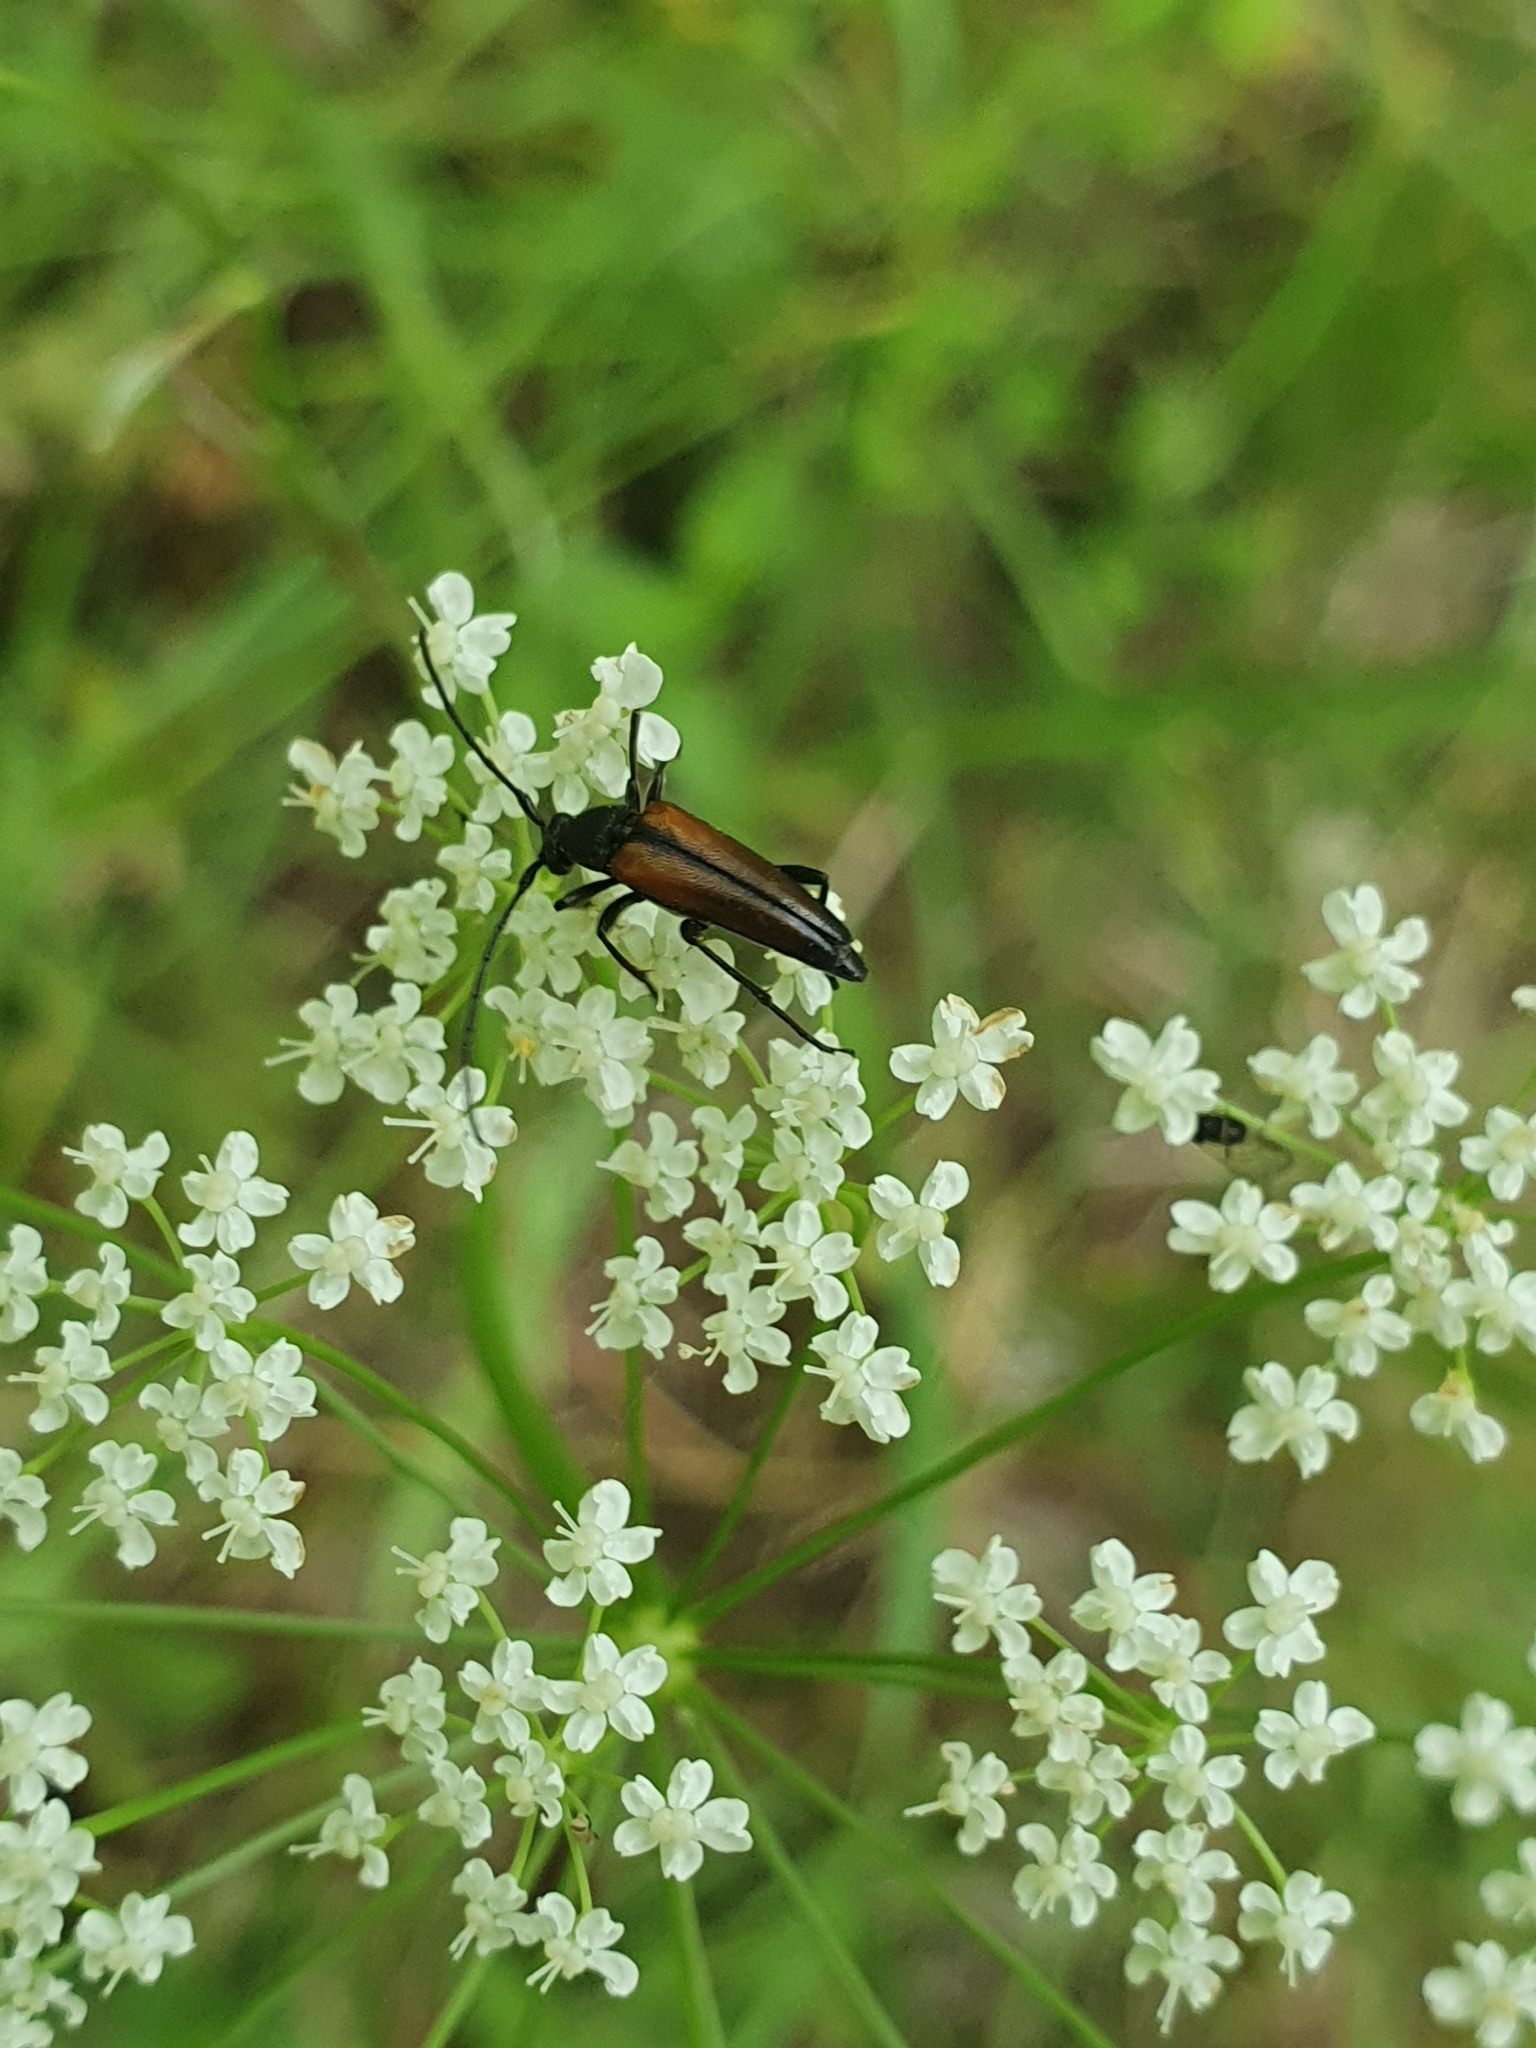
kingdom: Animalia
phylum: Arthropoda
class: Insecta
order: Coleoptera
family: Cerambycidae
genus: Stenurella
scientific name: Stenurella melanura
